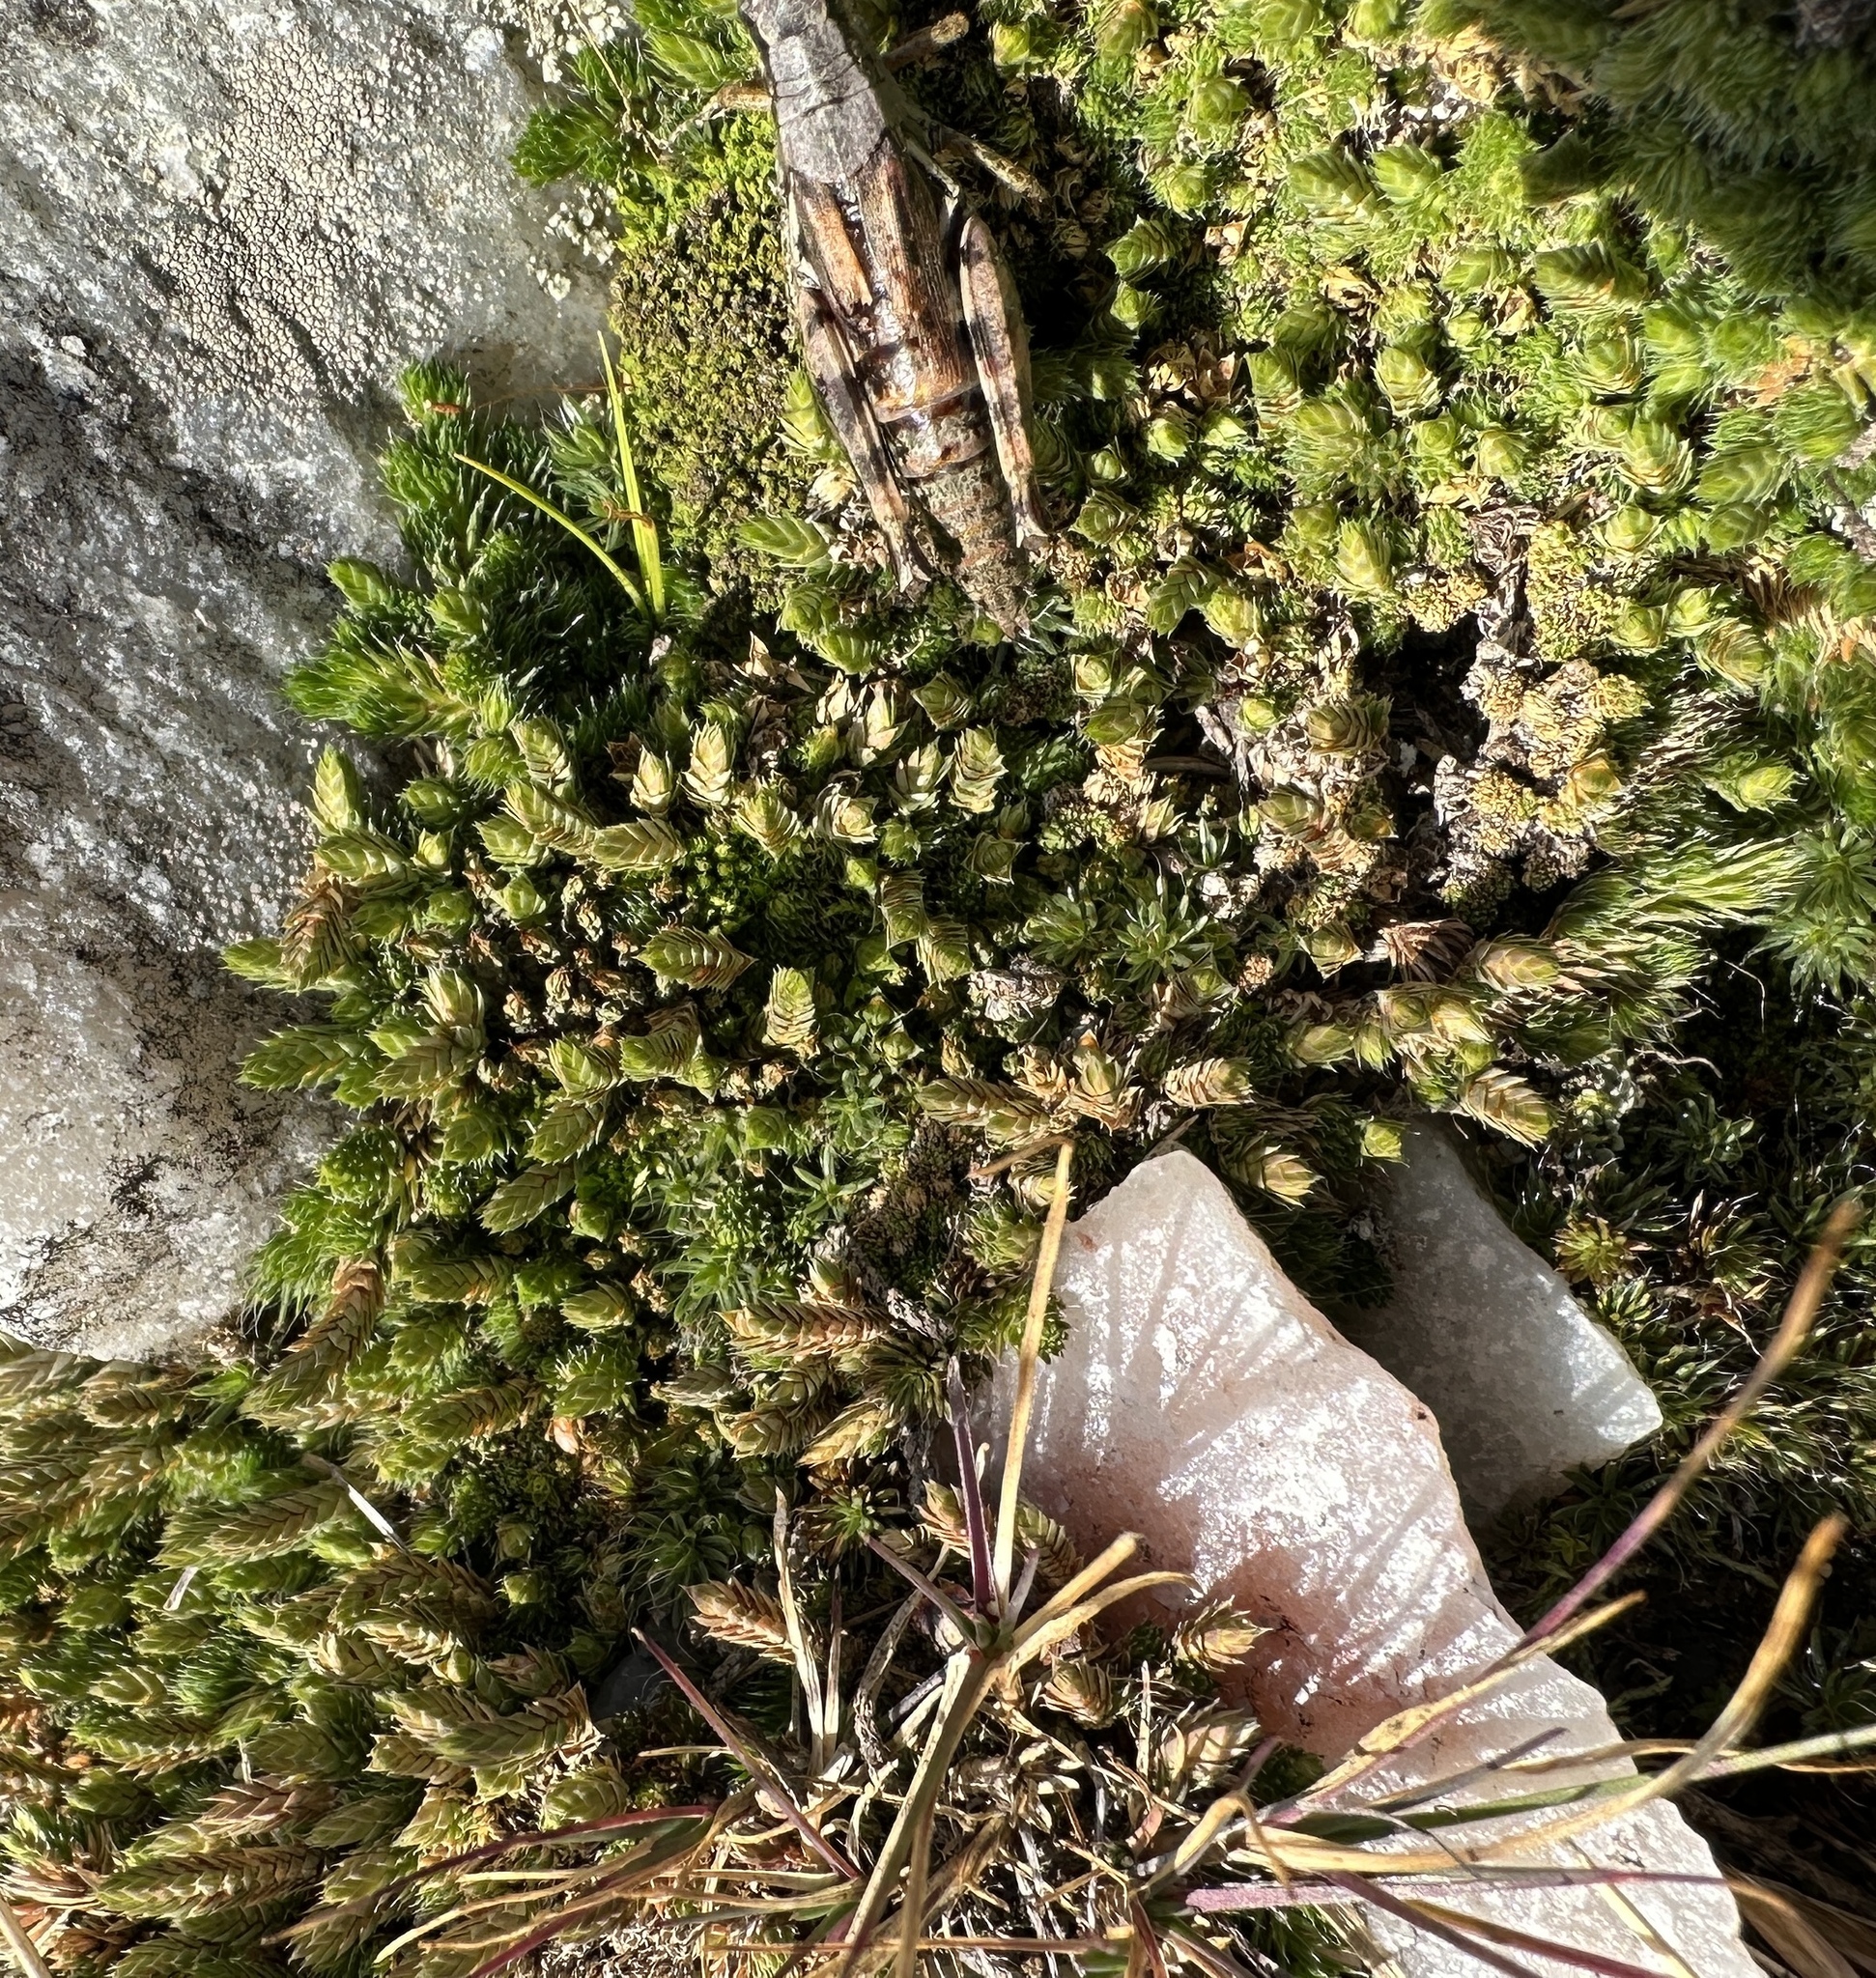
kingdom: Plantae
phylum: Tracheophyta
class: Lycopodiopsida
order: Selaginellales
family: Selaginellaceae
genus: Selaginella
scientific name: Selaginella densa
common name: Mountain spike-moss
